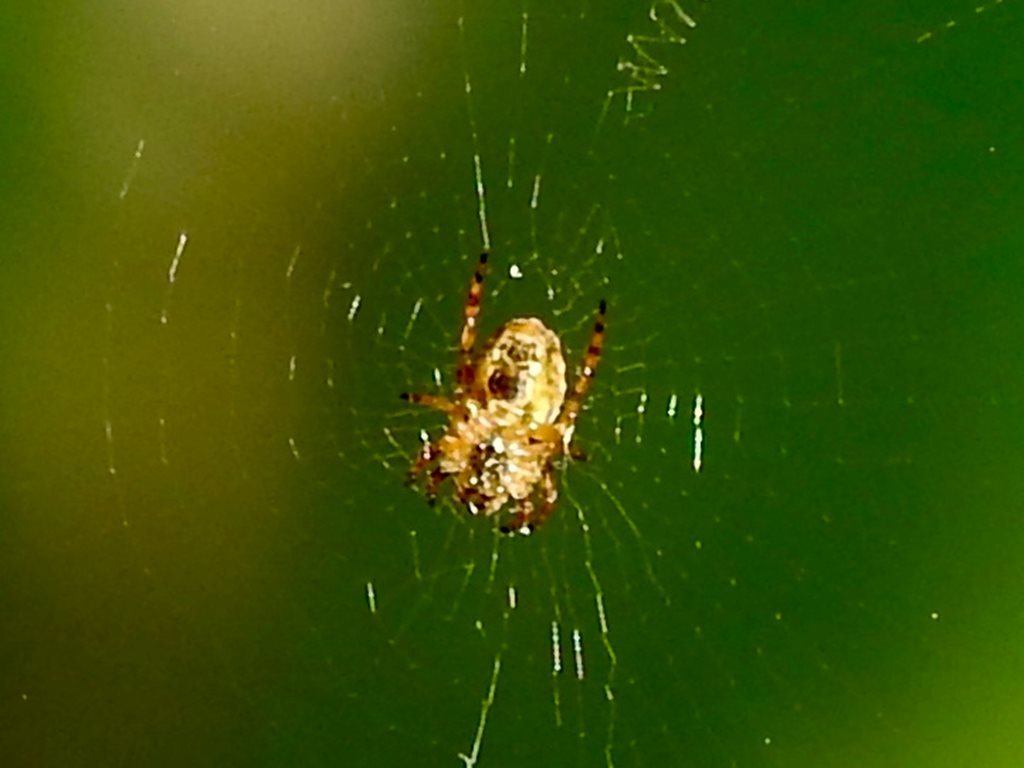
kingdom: Animalia
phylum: Arthropoda
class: Arachnida
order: Araneae
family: Araneidae
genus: Plebs
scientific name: Plebs eburnus
